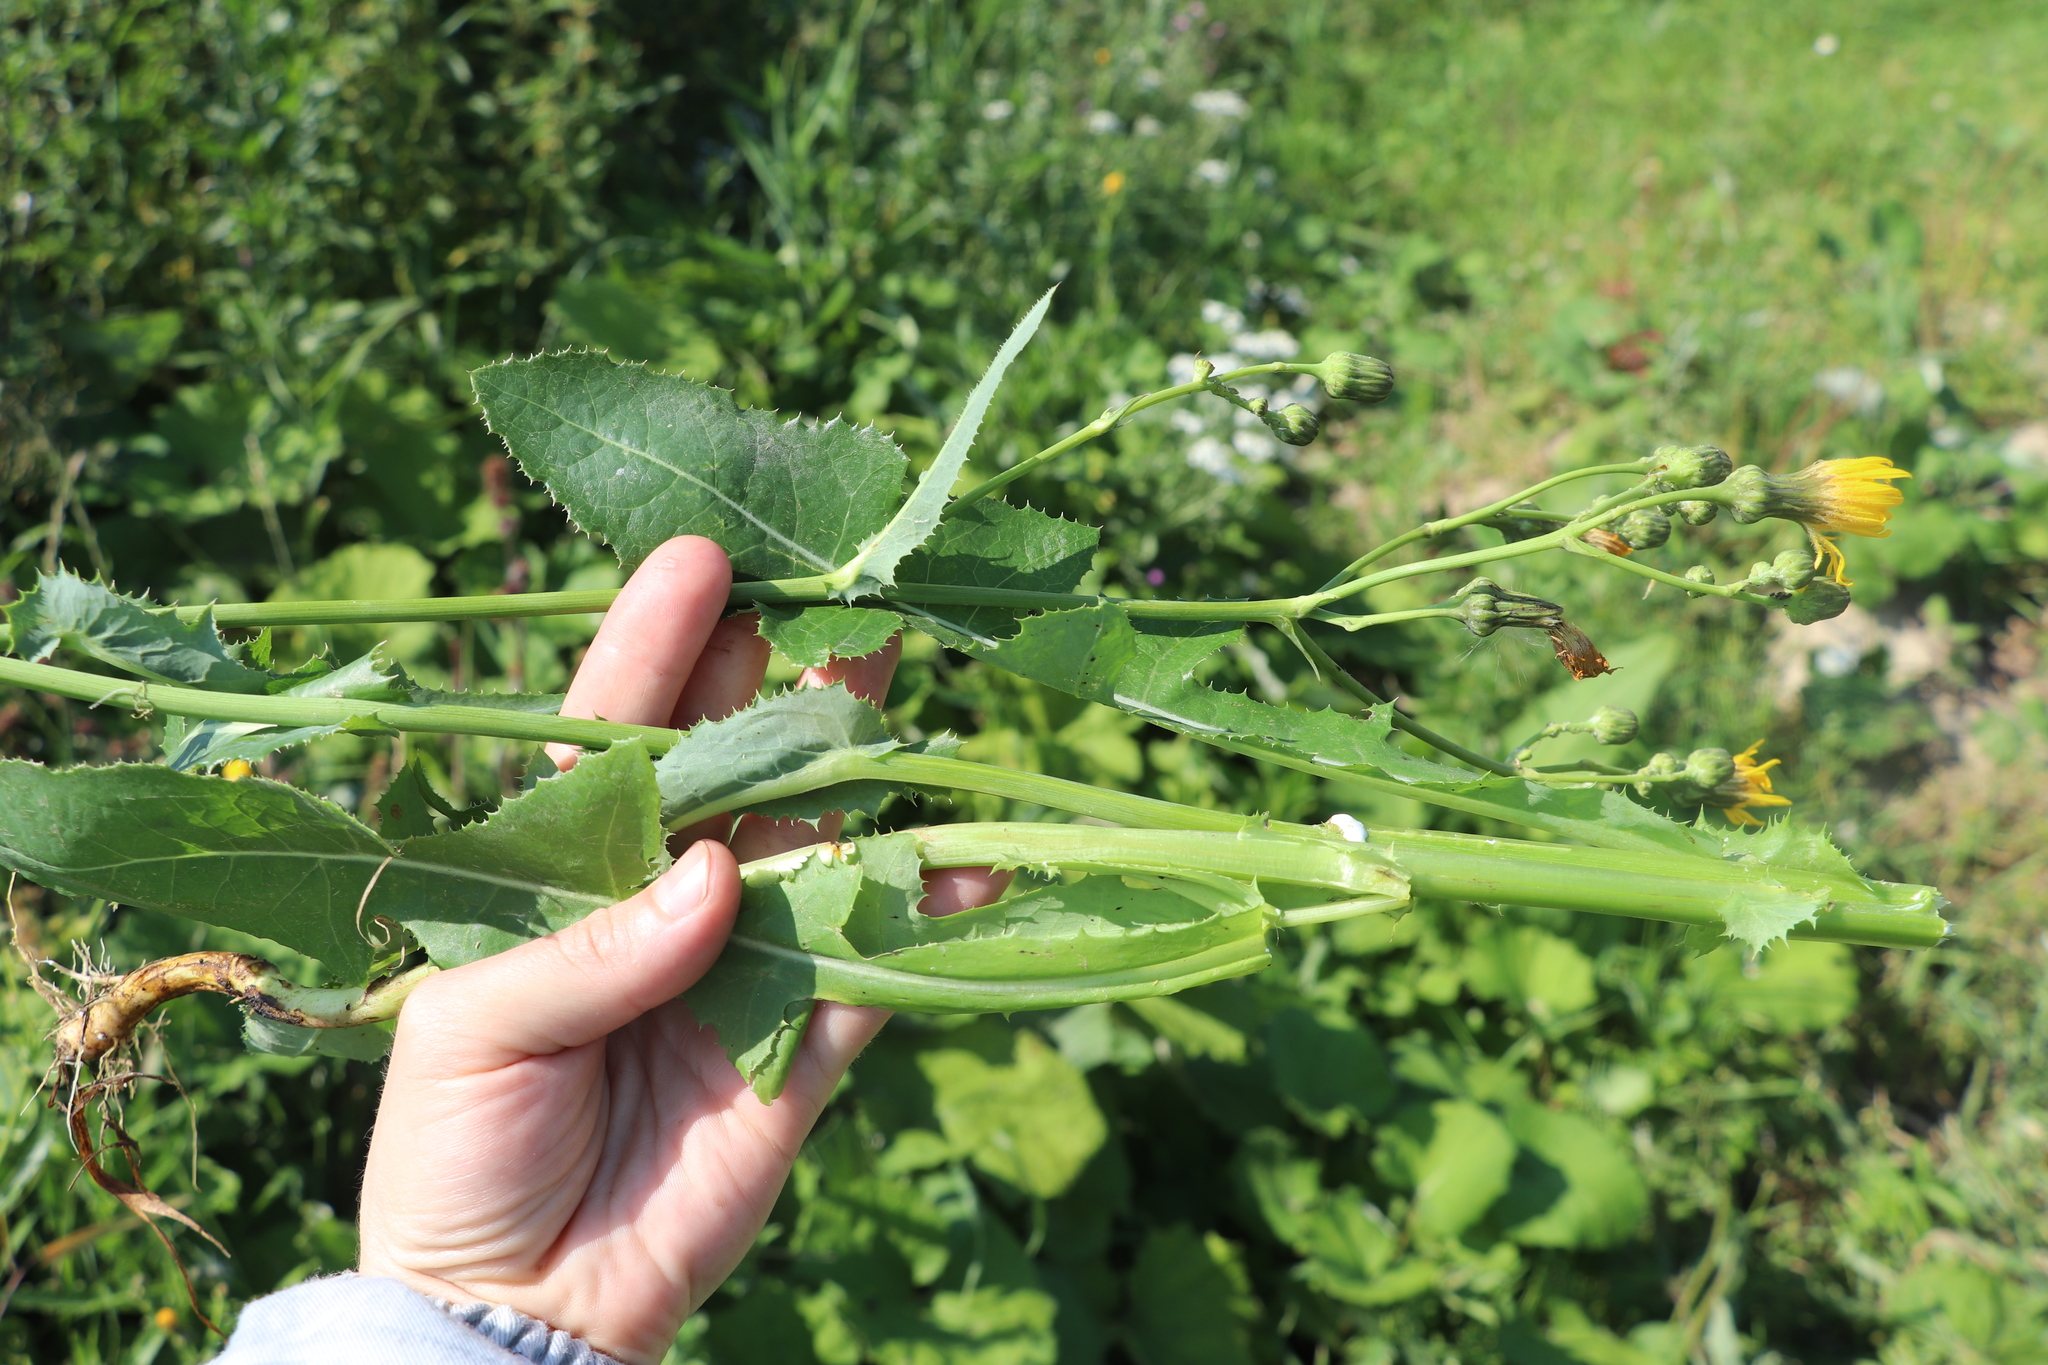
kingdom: Plantae
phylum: Tracheophyta
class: Magnoliopsida
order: Asterales
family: Asteraceae
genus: Sonchus
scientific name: Sonchus arvensis
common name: Perennial sow-thistle
